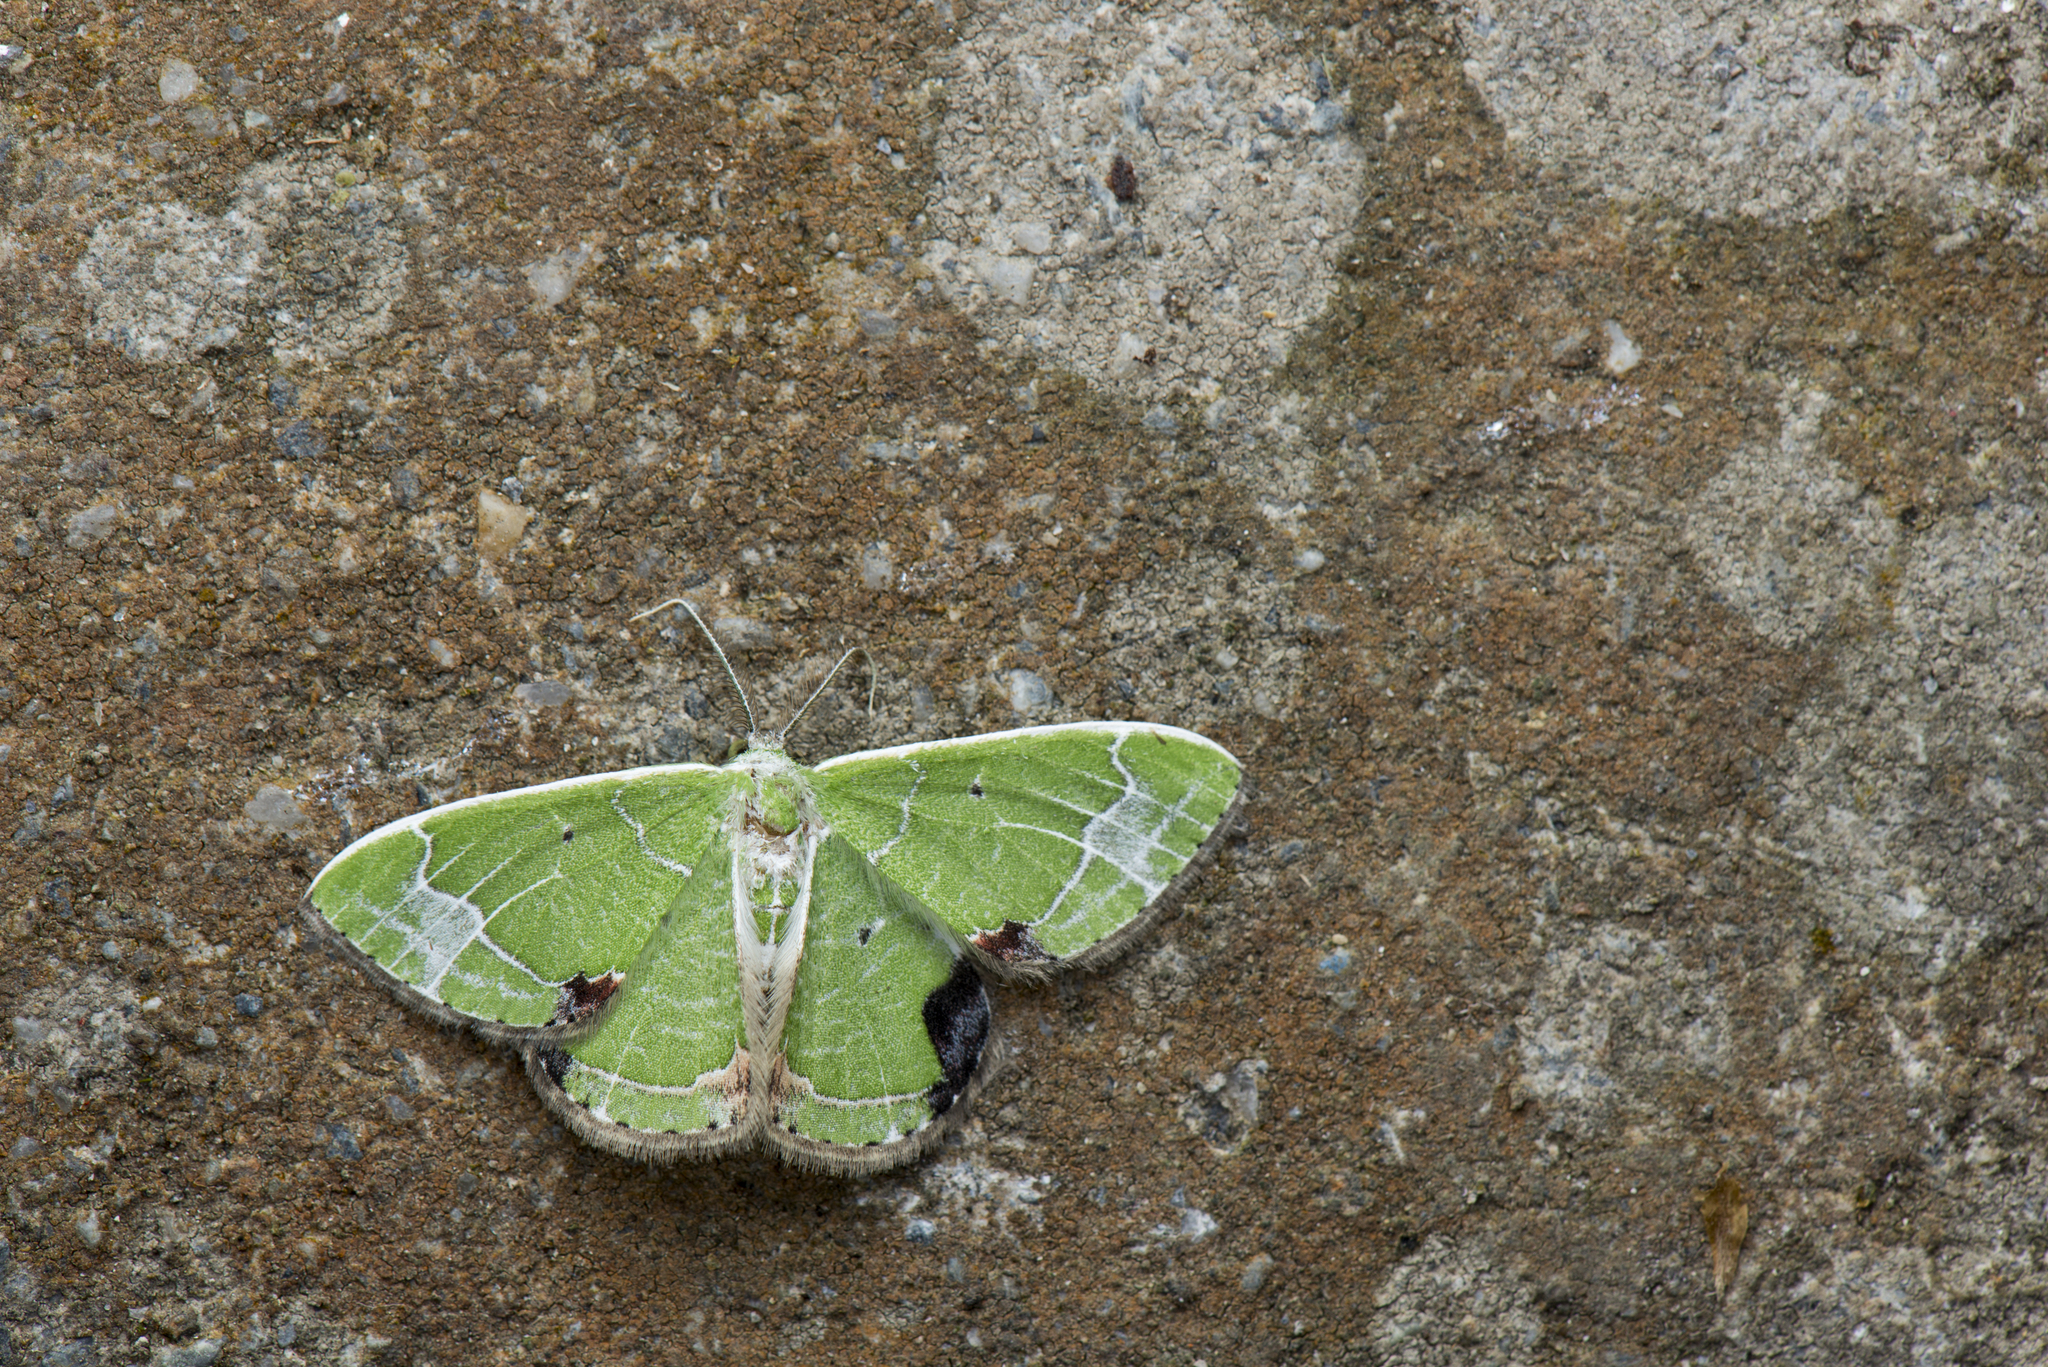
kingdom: Animalia
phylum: Arthropoda
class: Insecta
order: Lepidoptera
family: Geometridae
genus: Comibaena
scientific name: Comibaena subdelicata
